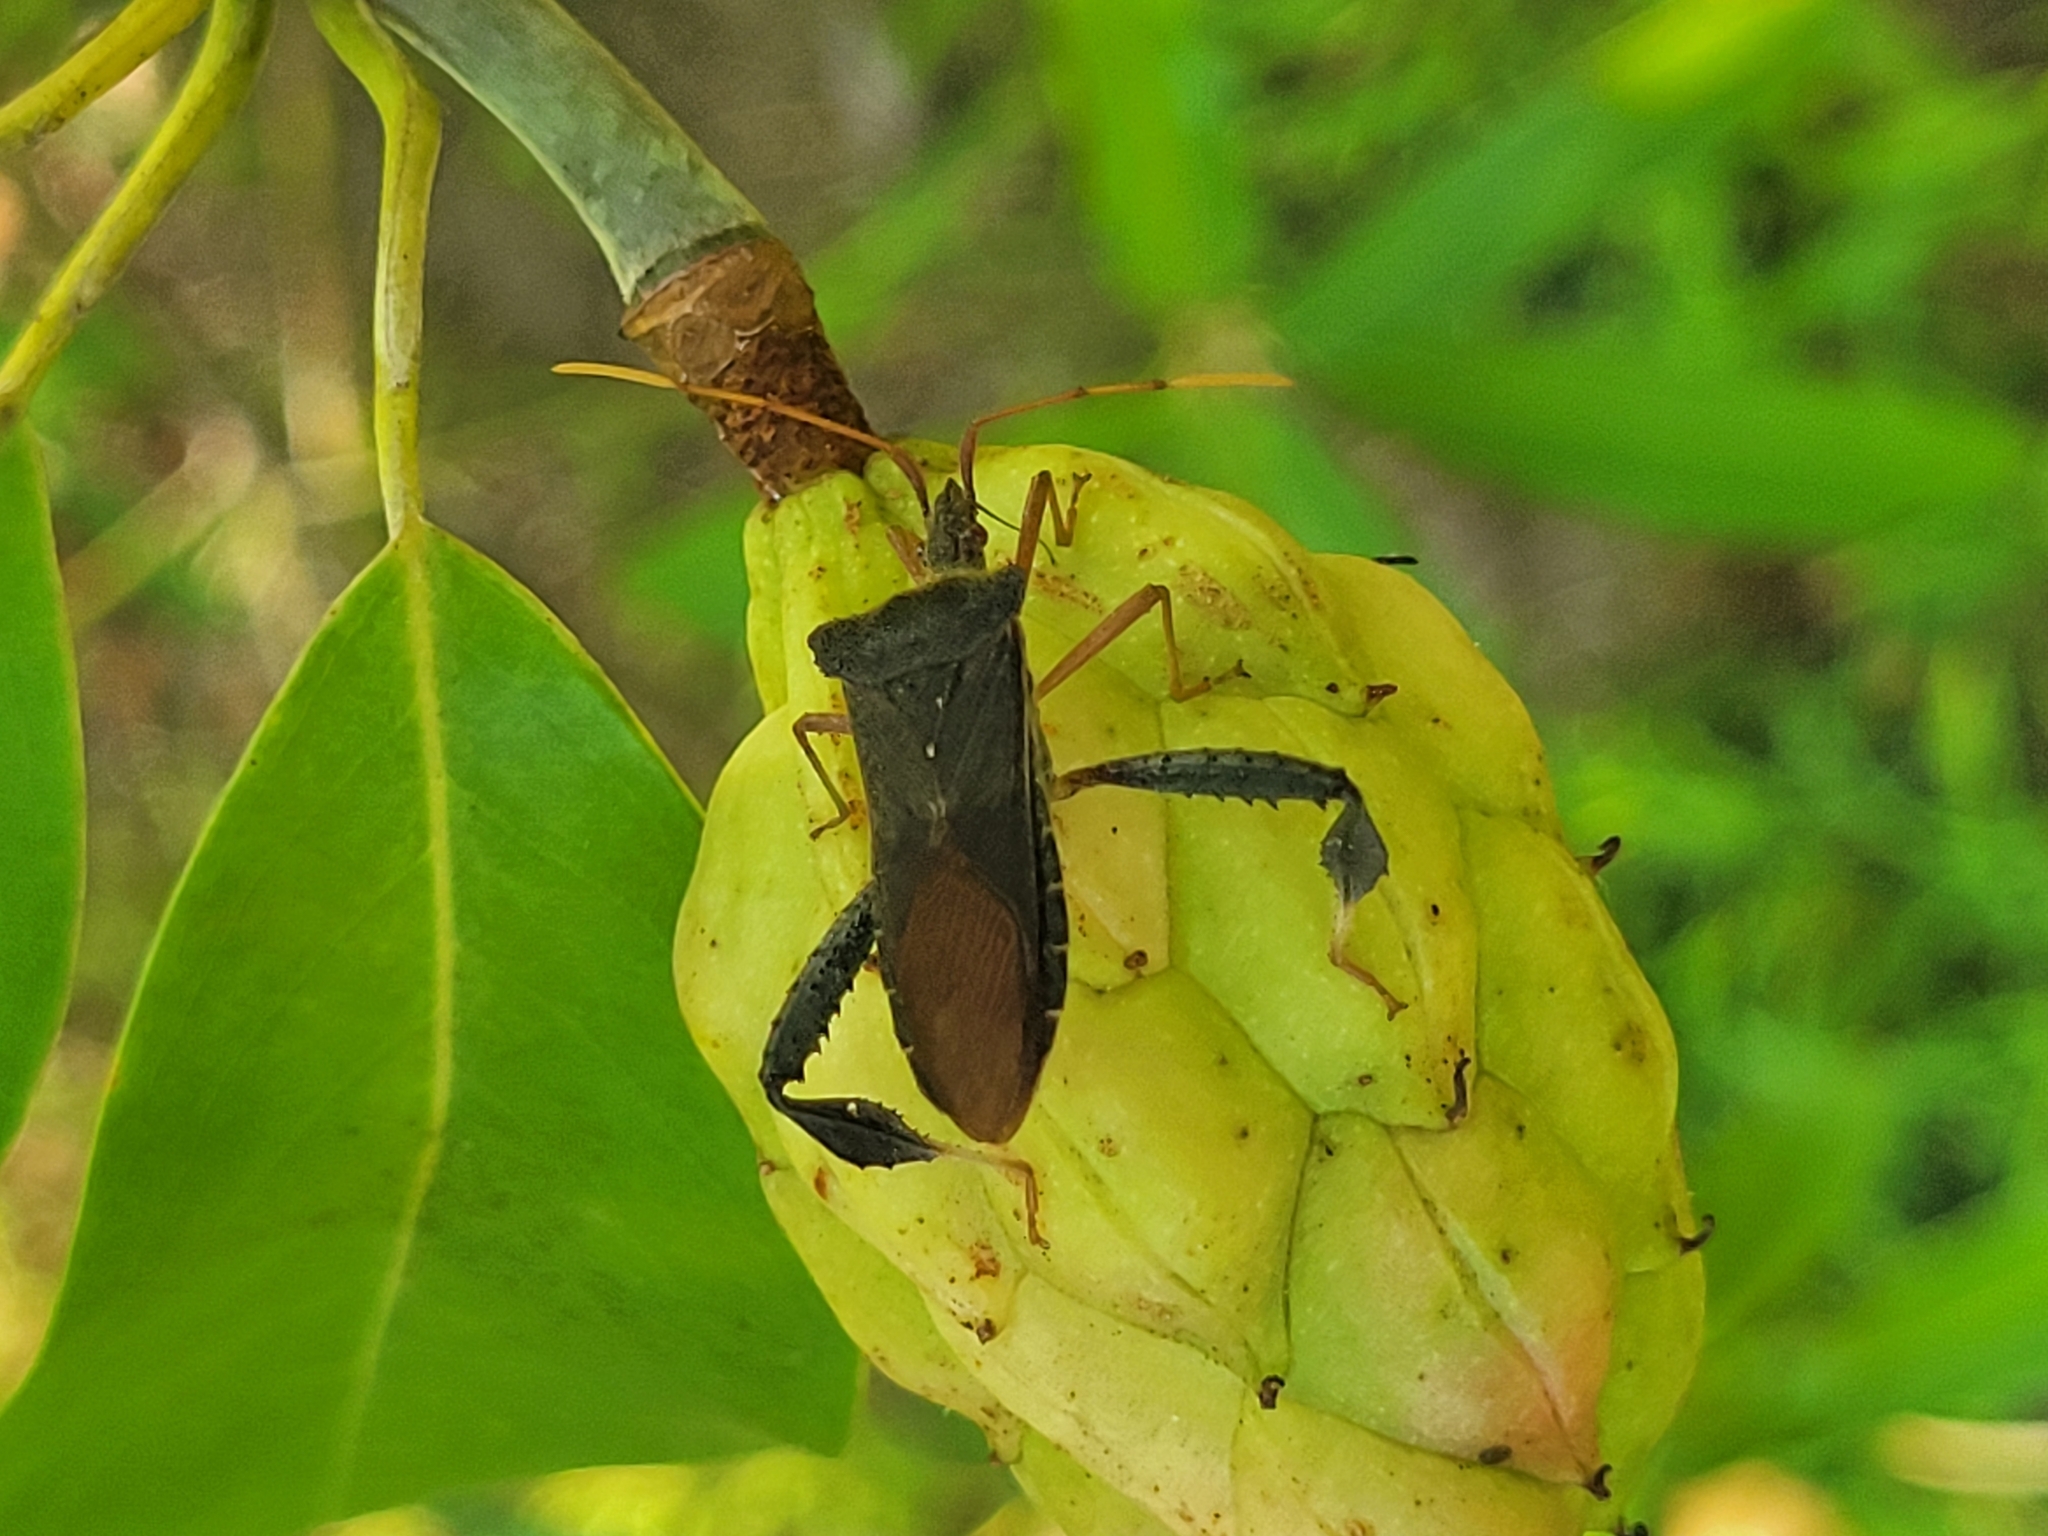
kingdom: Animalia
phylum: Arthropoda
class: Insecta
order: Hemiptera
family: Coreidae
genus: Leptoglossus
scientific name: Leptoglossus fulvicornis
